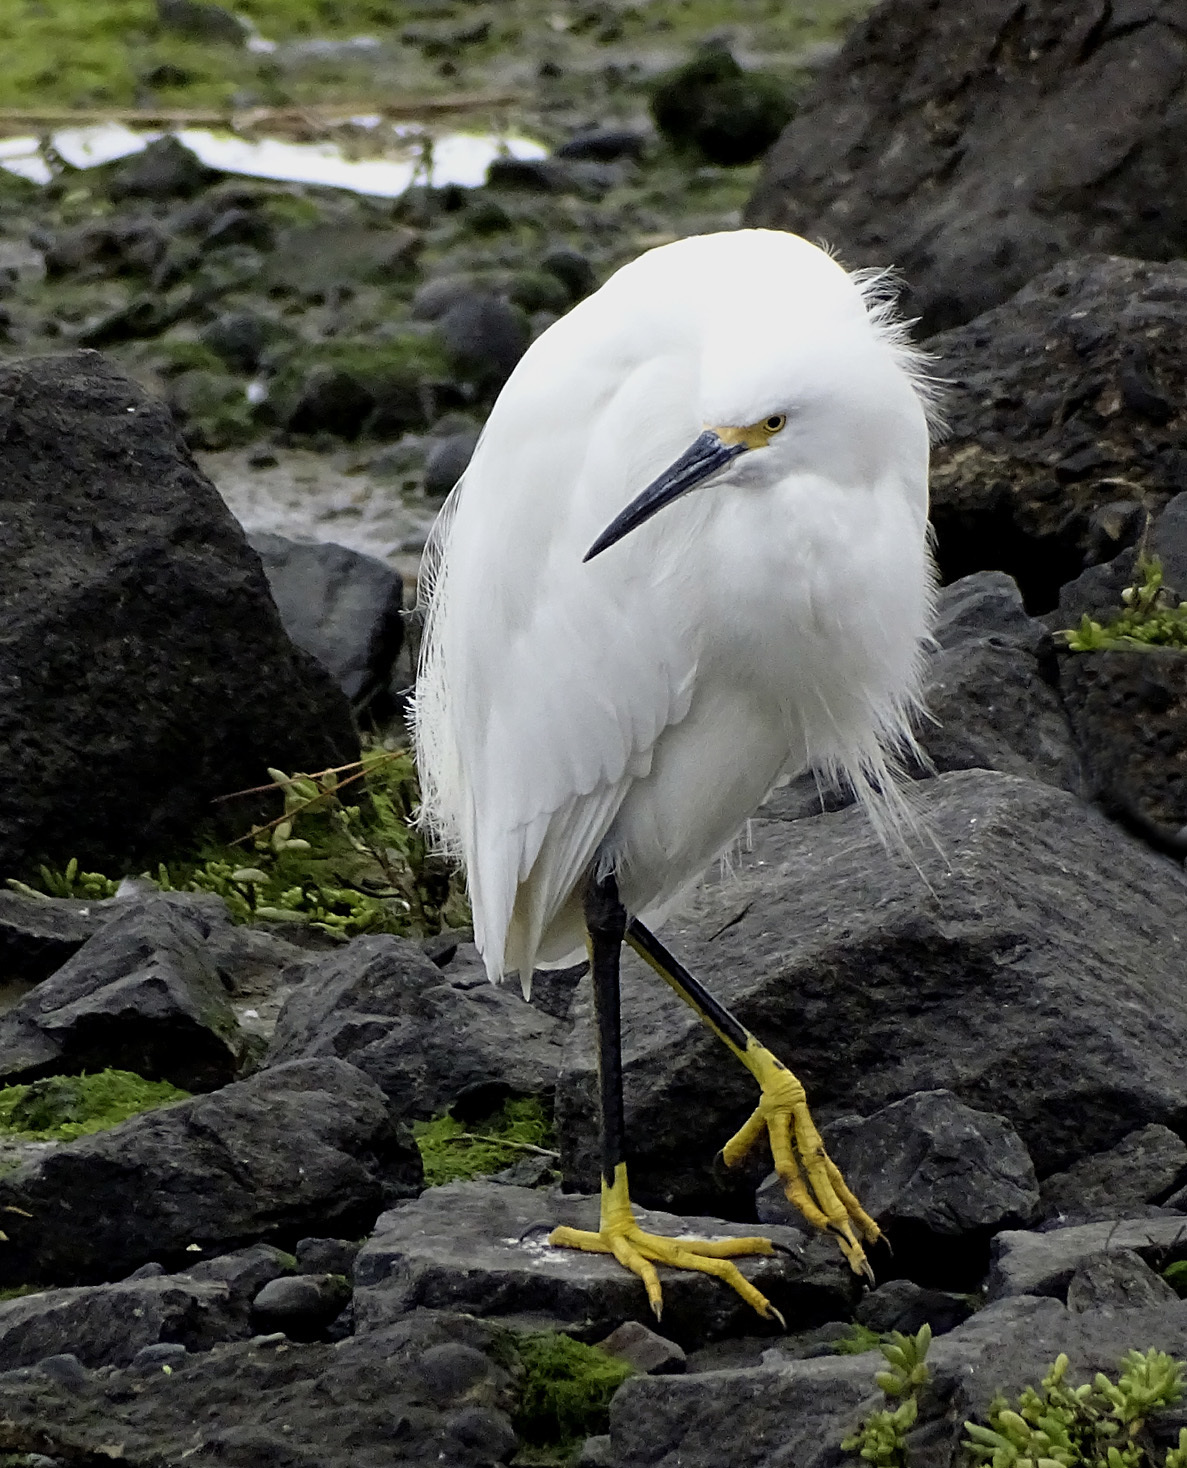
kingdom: Animalia
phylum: Chordata
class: Aves
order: Pelecaniformes
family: Ardeidae
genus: Egretta
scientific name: Egretta thula
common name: Snowy egret
